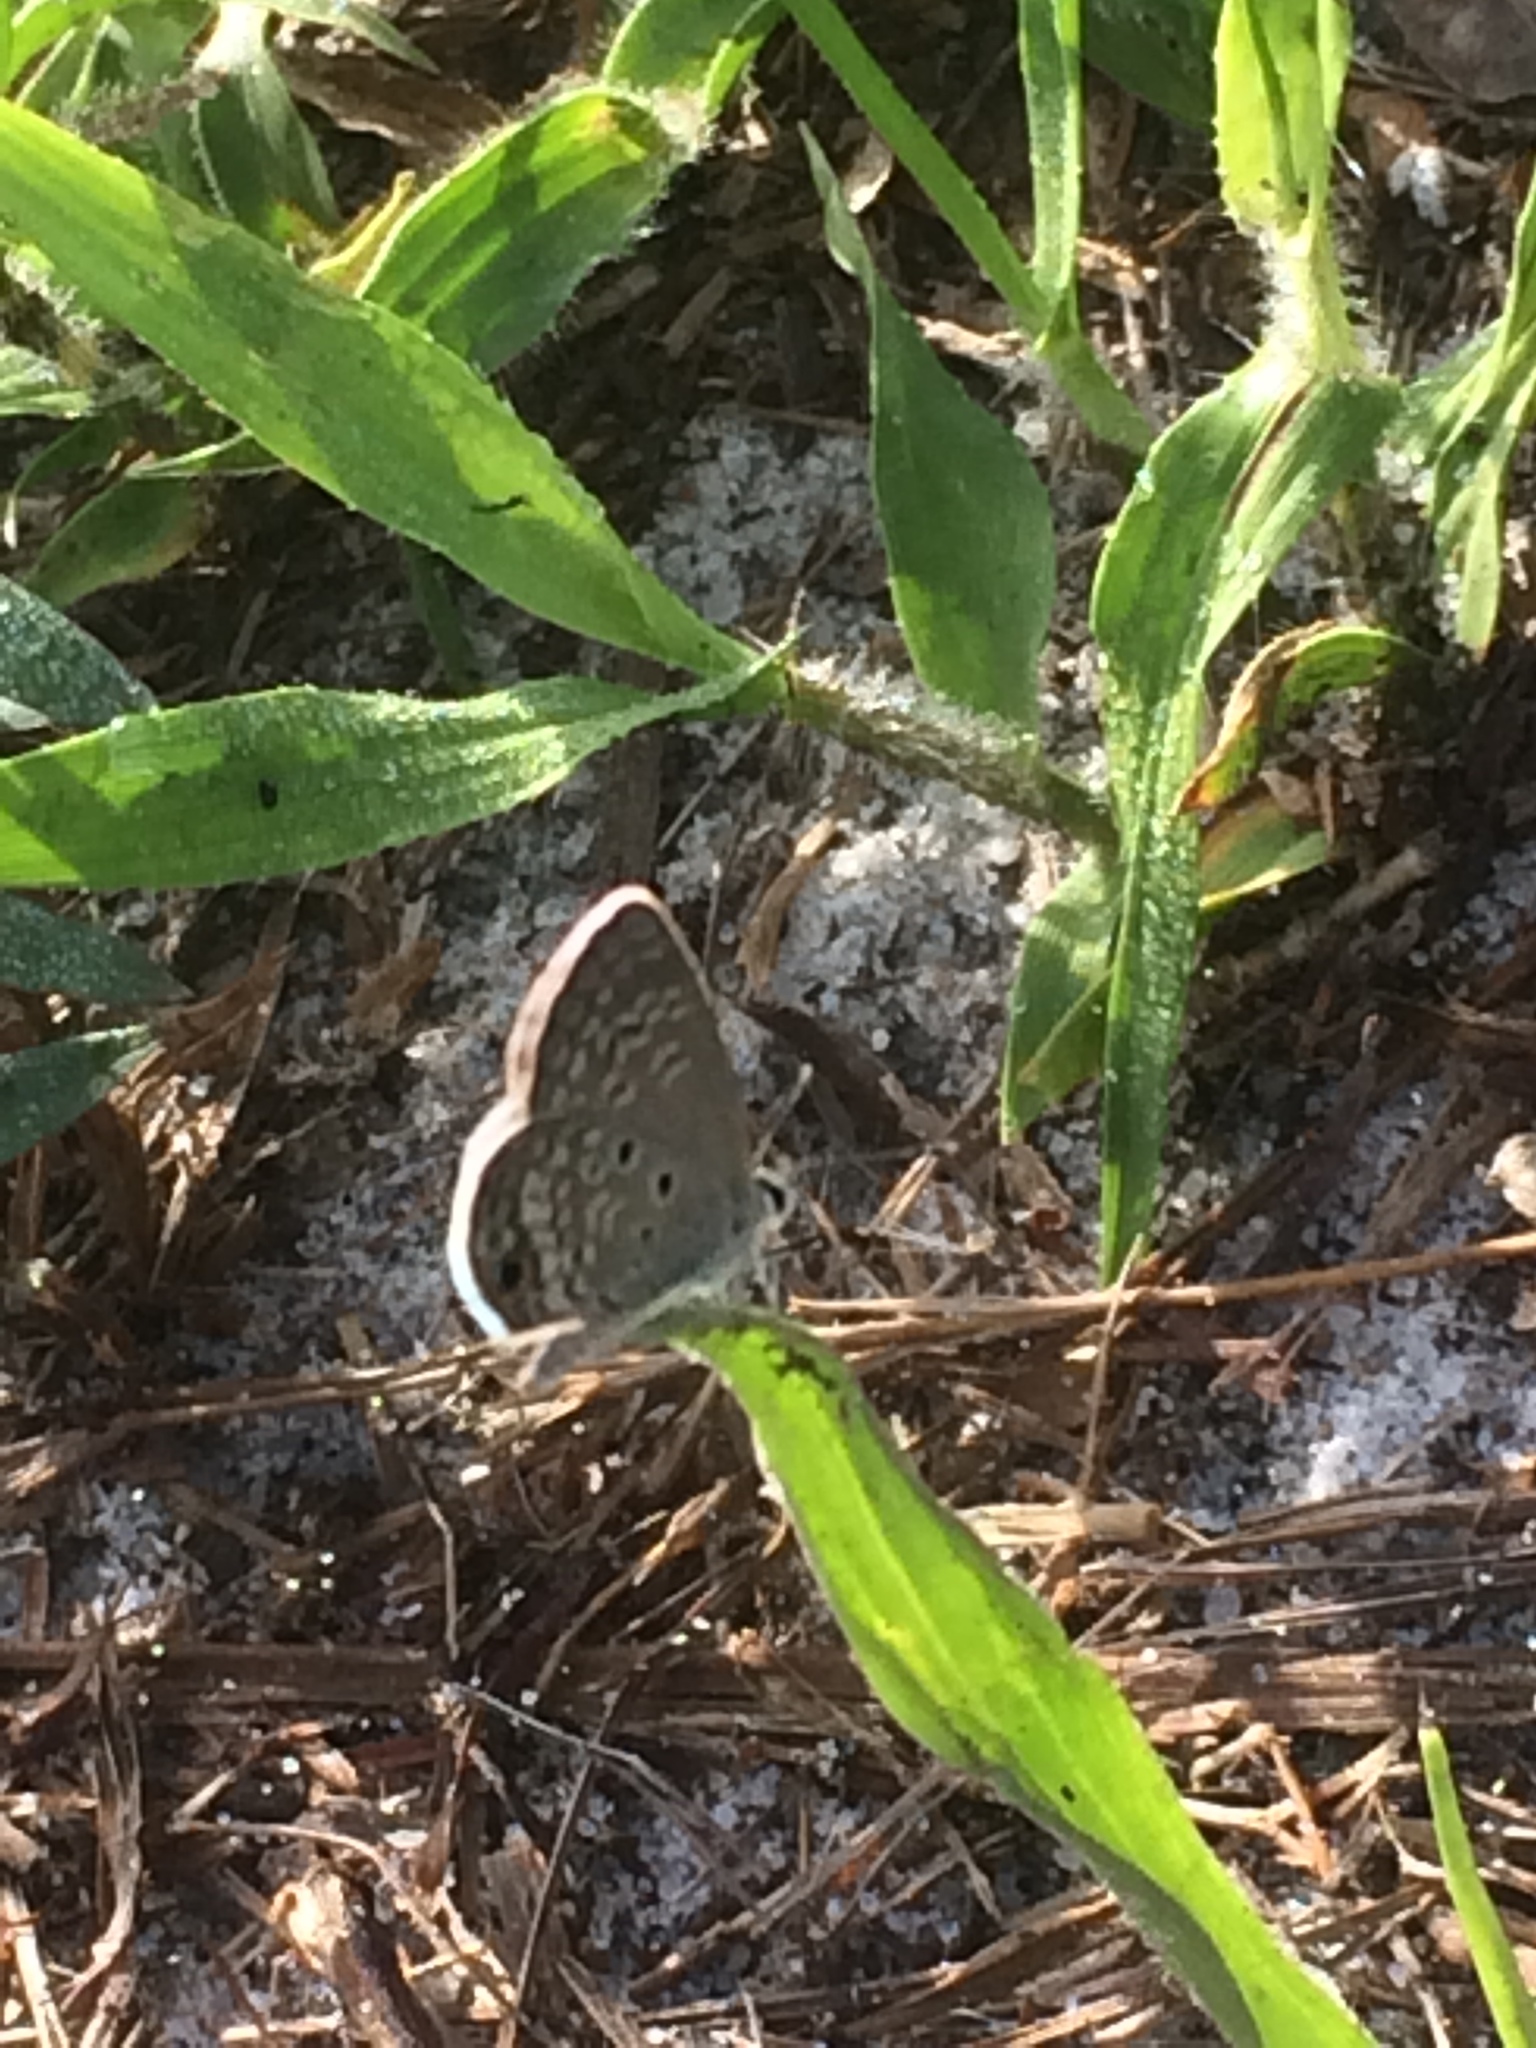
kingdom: Animalia
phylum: Arthropoda
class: Insecta
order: Lepidoptera
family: Lycaenidae
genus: Hemiargus
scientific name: Hemiargus ceraunus
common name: Ceraunus blue
